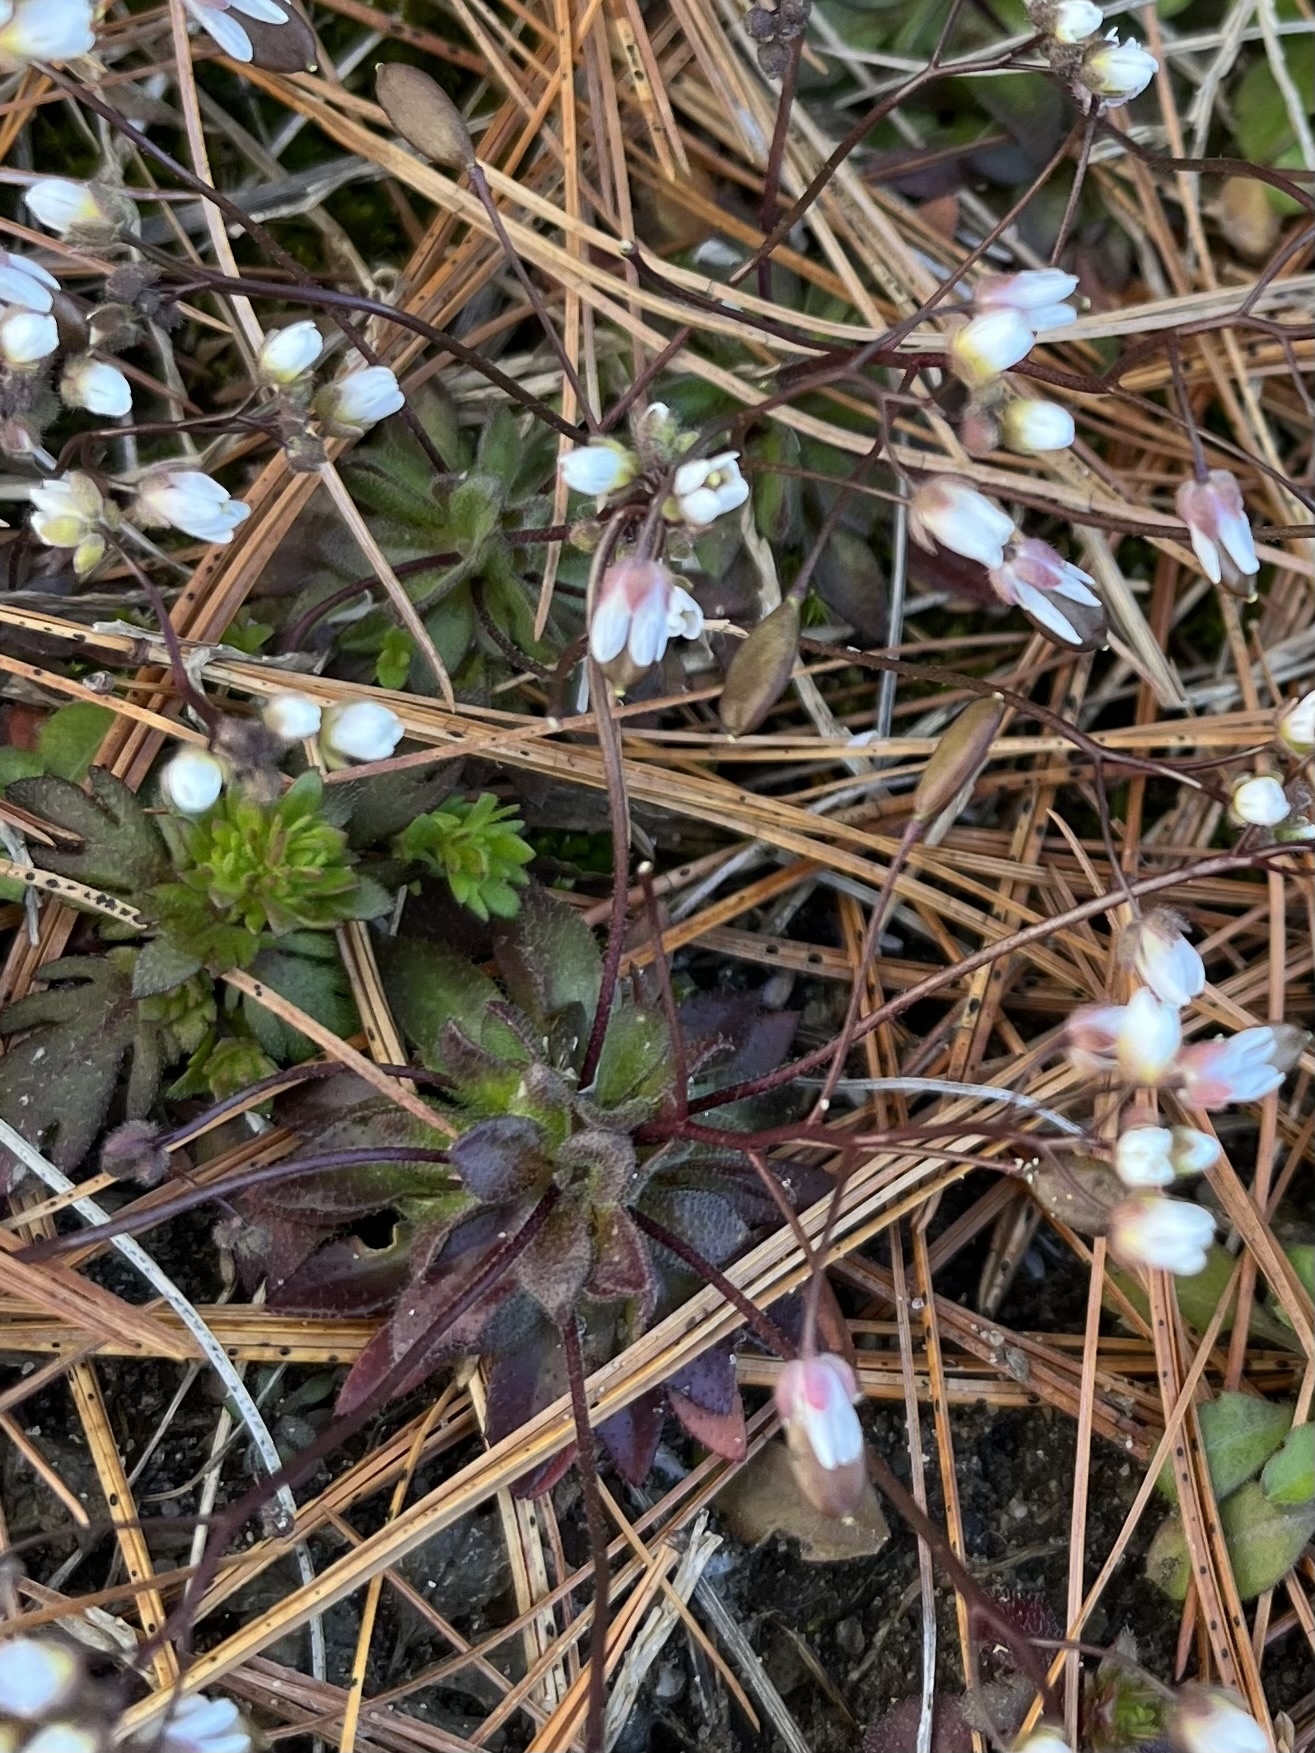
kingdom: Plantae
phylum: Tracheophyta
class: Magnoliopsida
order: Brassicales
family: Brassicaceae
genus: Draba
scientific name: Draba verna
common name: Spring draba
